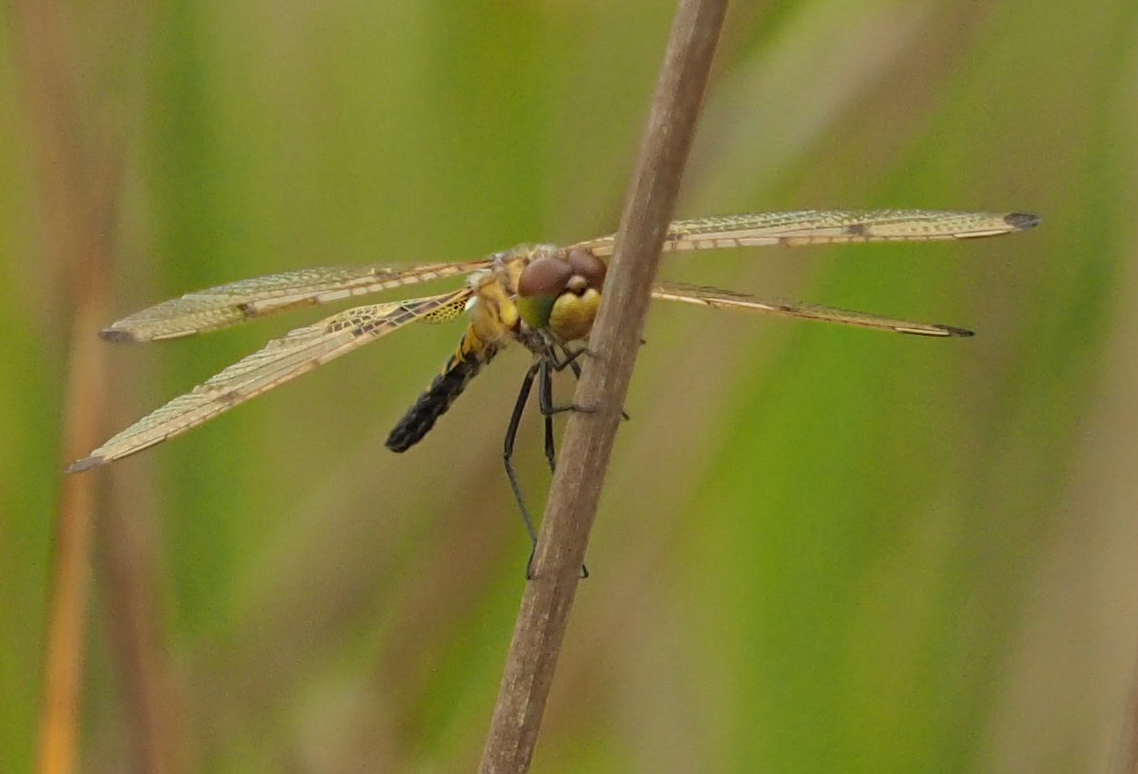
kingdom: Animalia
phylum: Arthropoda
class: Insecta
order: Odonata
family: Libellulidae
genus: Celithemis
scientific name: Celithemis elisa
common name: Calico pennant
